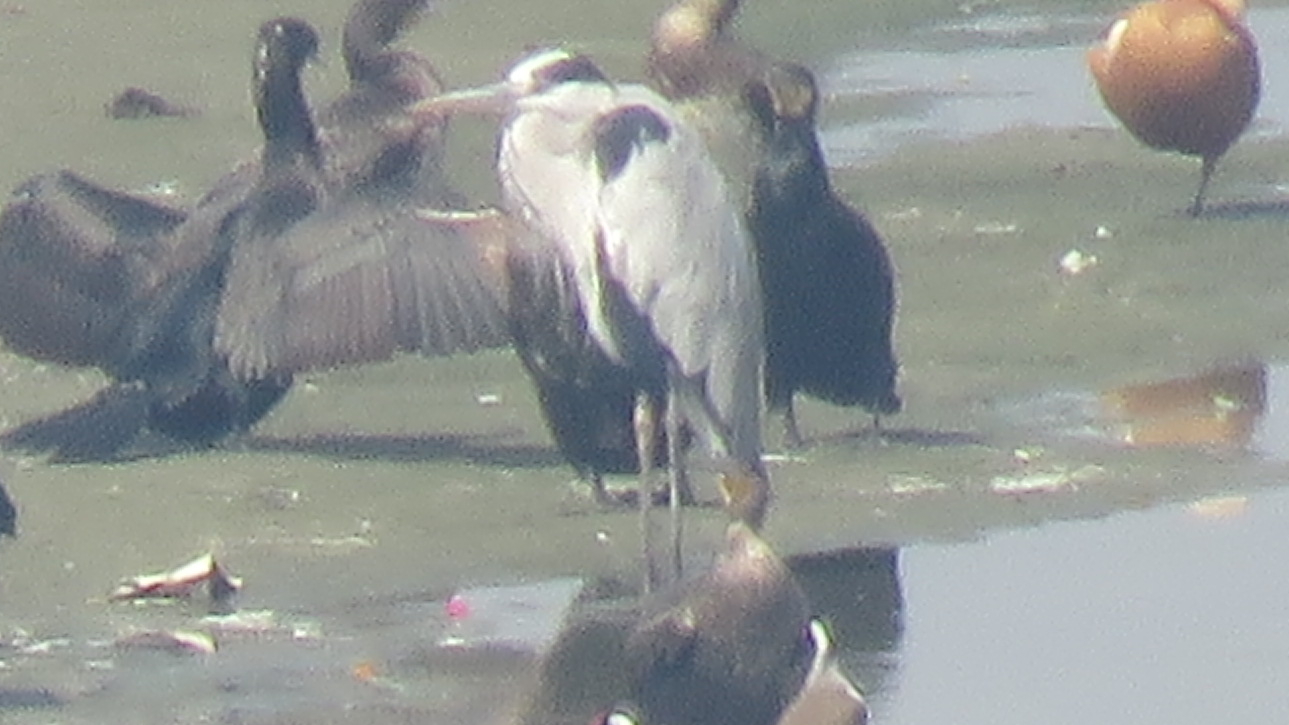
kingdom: Animalia
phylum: Chordata
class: Aves
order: Pelecaniformes
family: Ardeidae
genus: Ardea
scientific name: Ardea cinerea
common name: Grey heron
